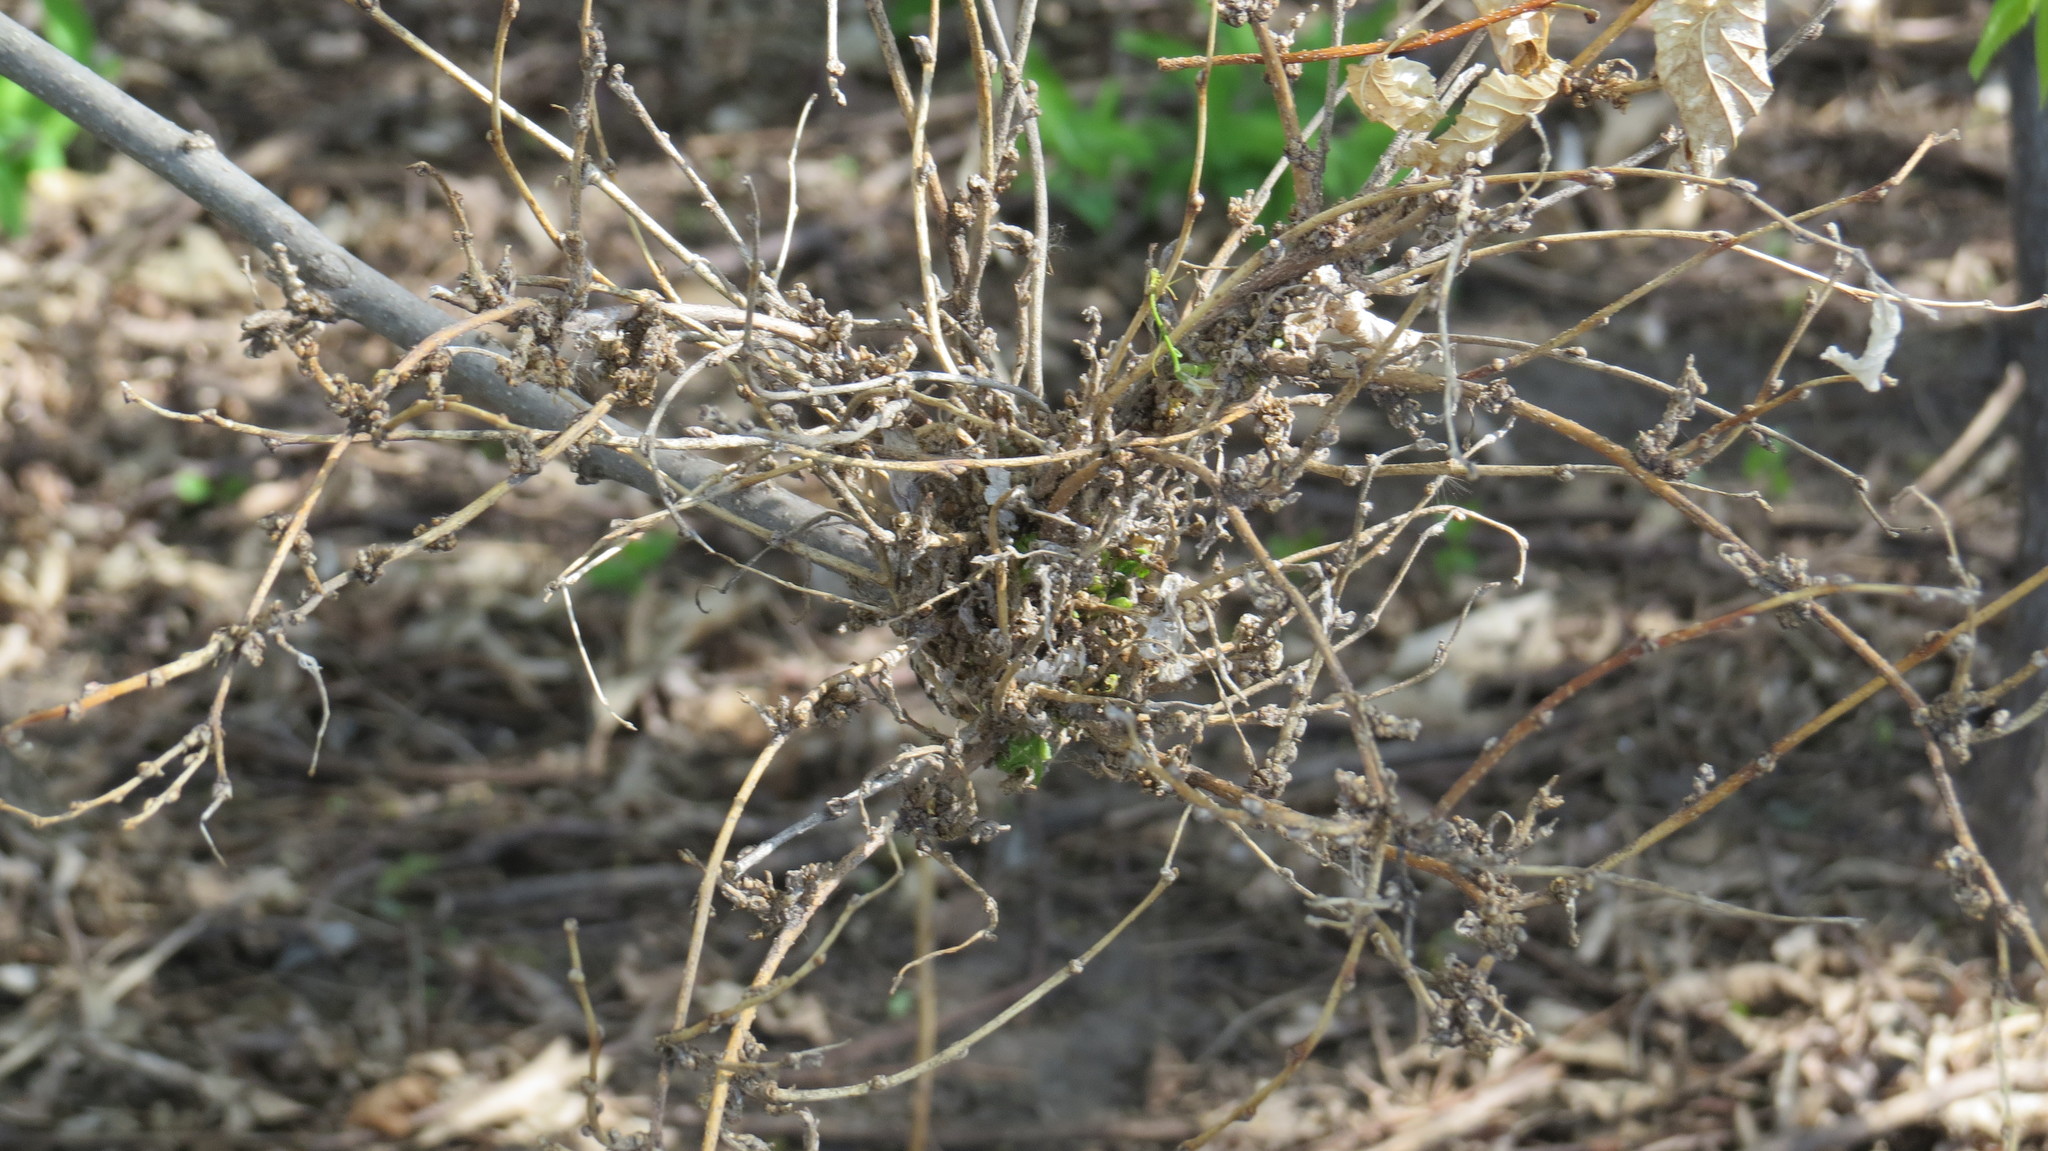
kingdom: Animalia
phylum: Arthropoda
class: Arachnida
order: Trombidiformes
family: Eriophyidae
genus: Aceria
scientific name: Aceria
